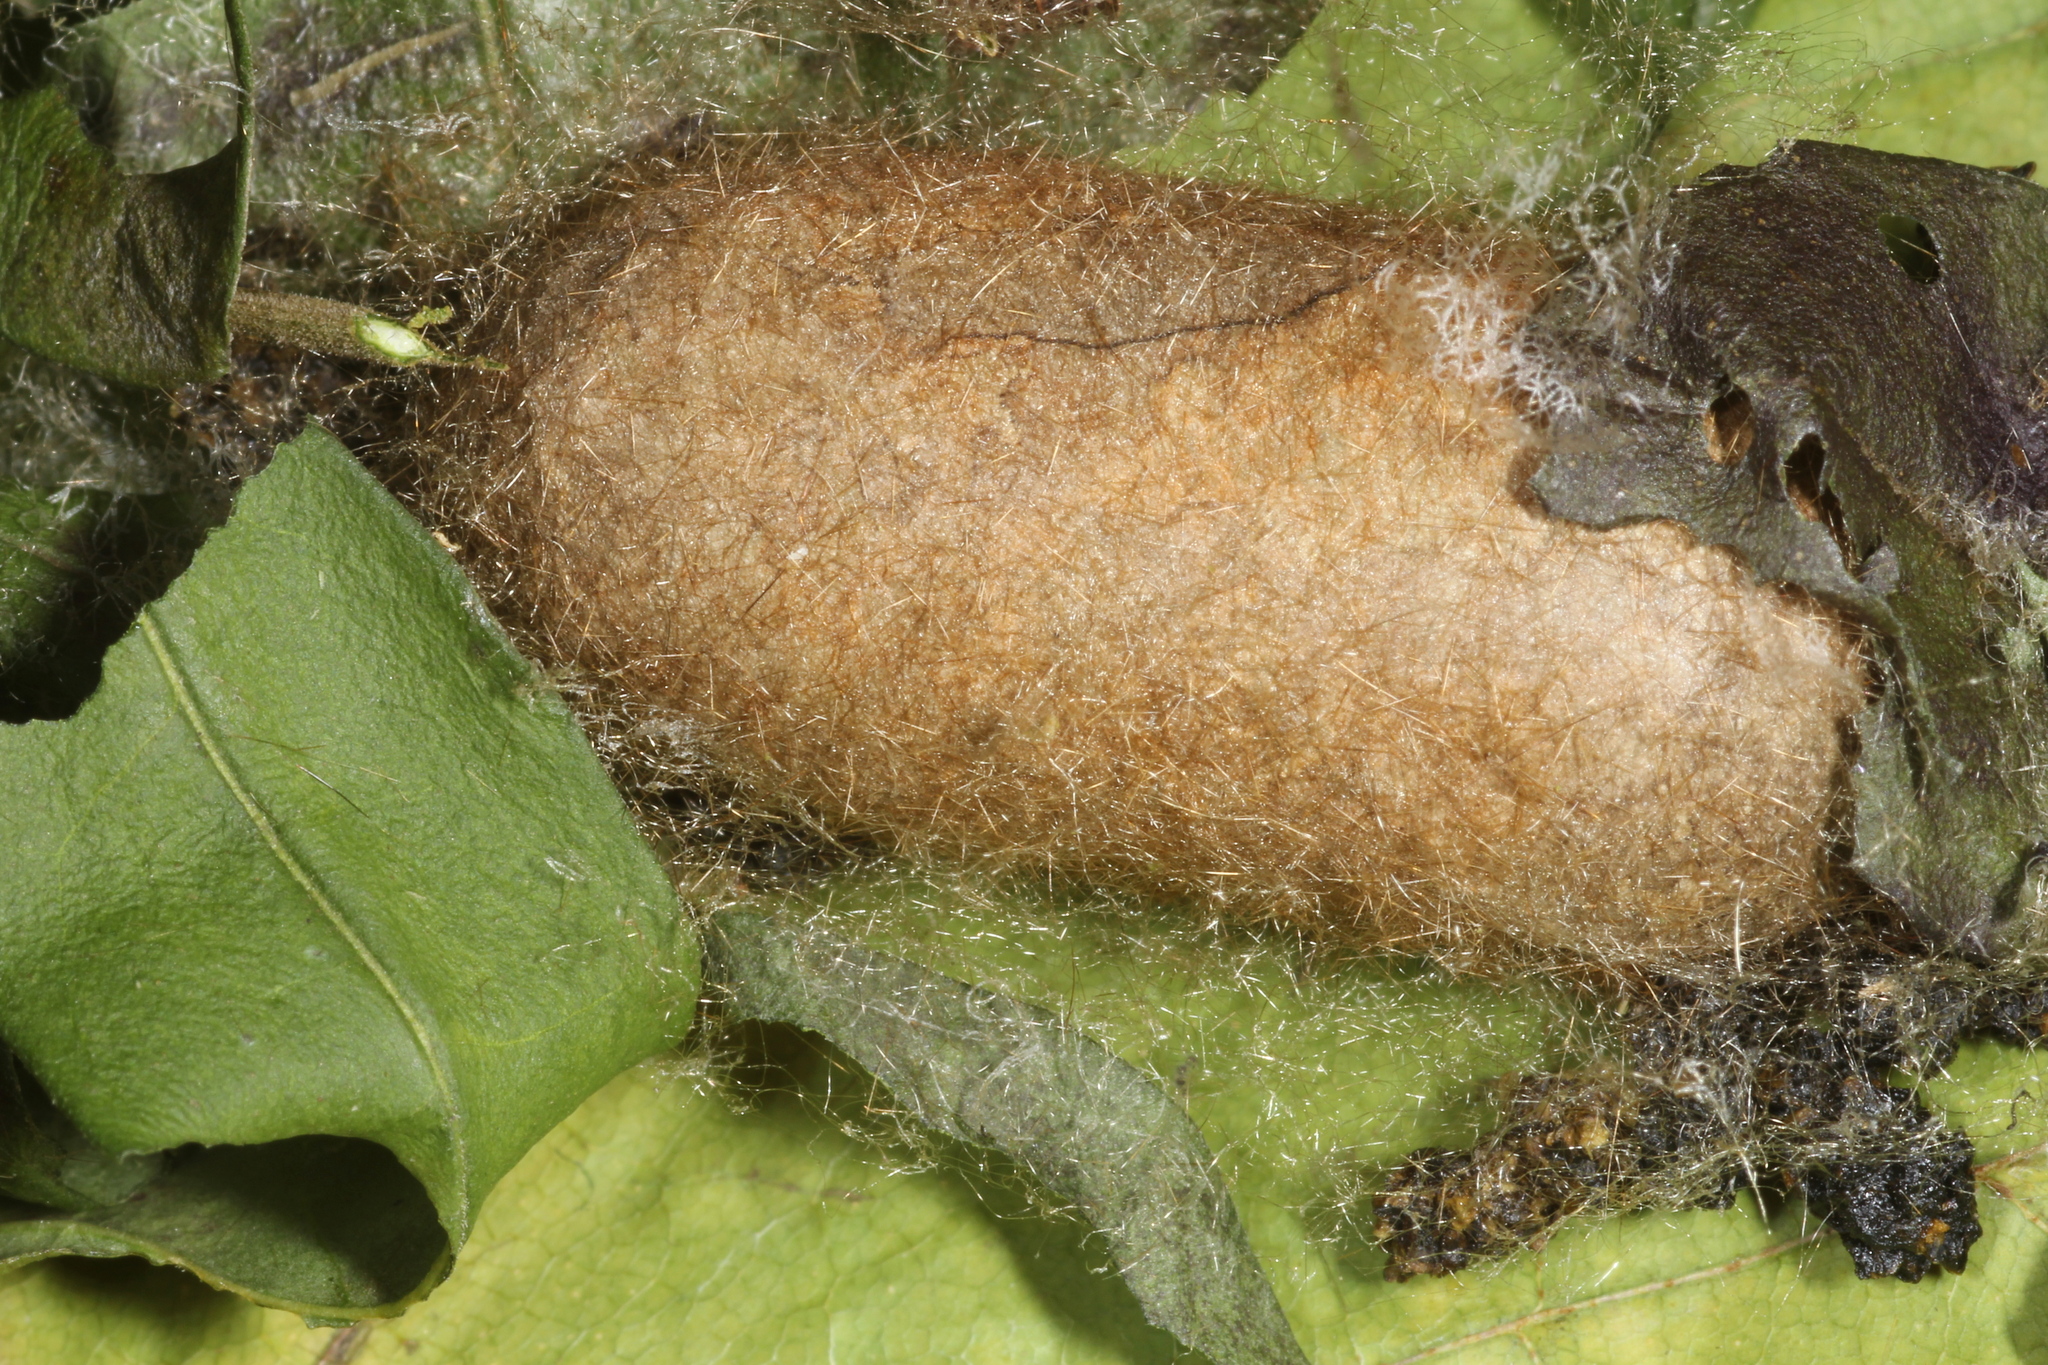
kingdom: Animalia
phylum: Arthropoda
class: Insecta
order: Lepidoptera
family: Lasiocampidae
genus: Lasiocampa
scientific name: Lasiocampa quercus
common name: Oak eggar
